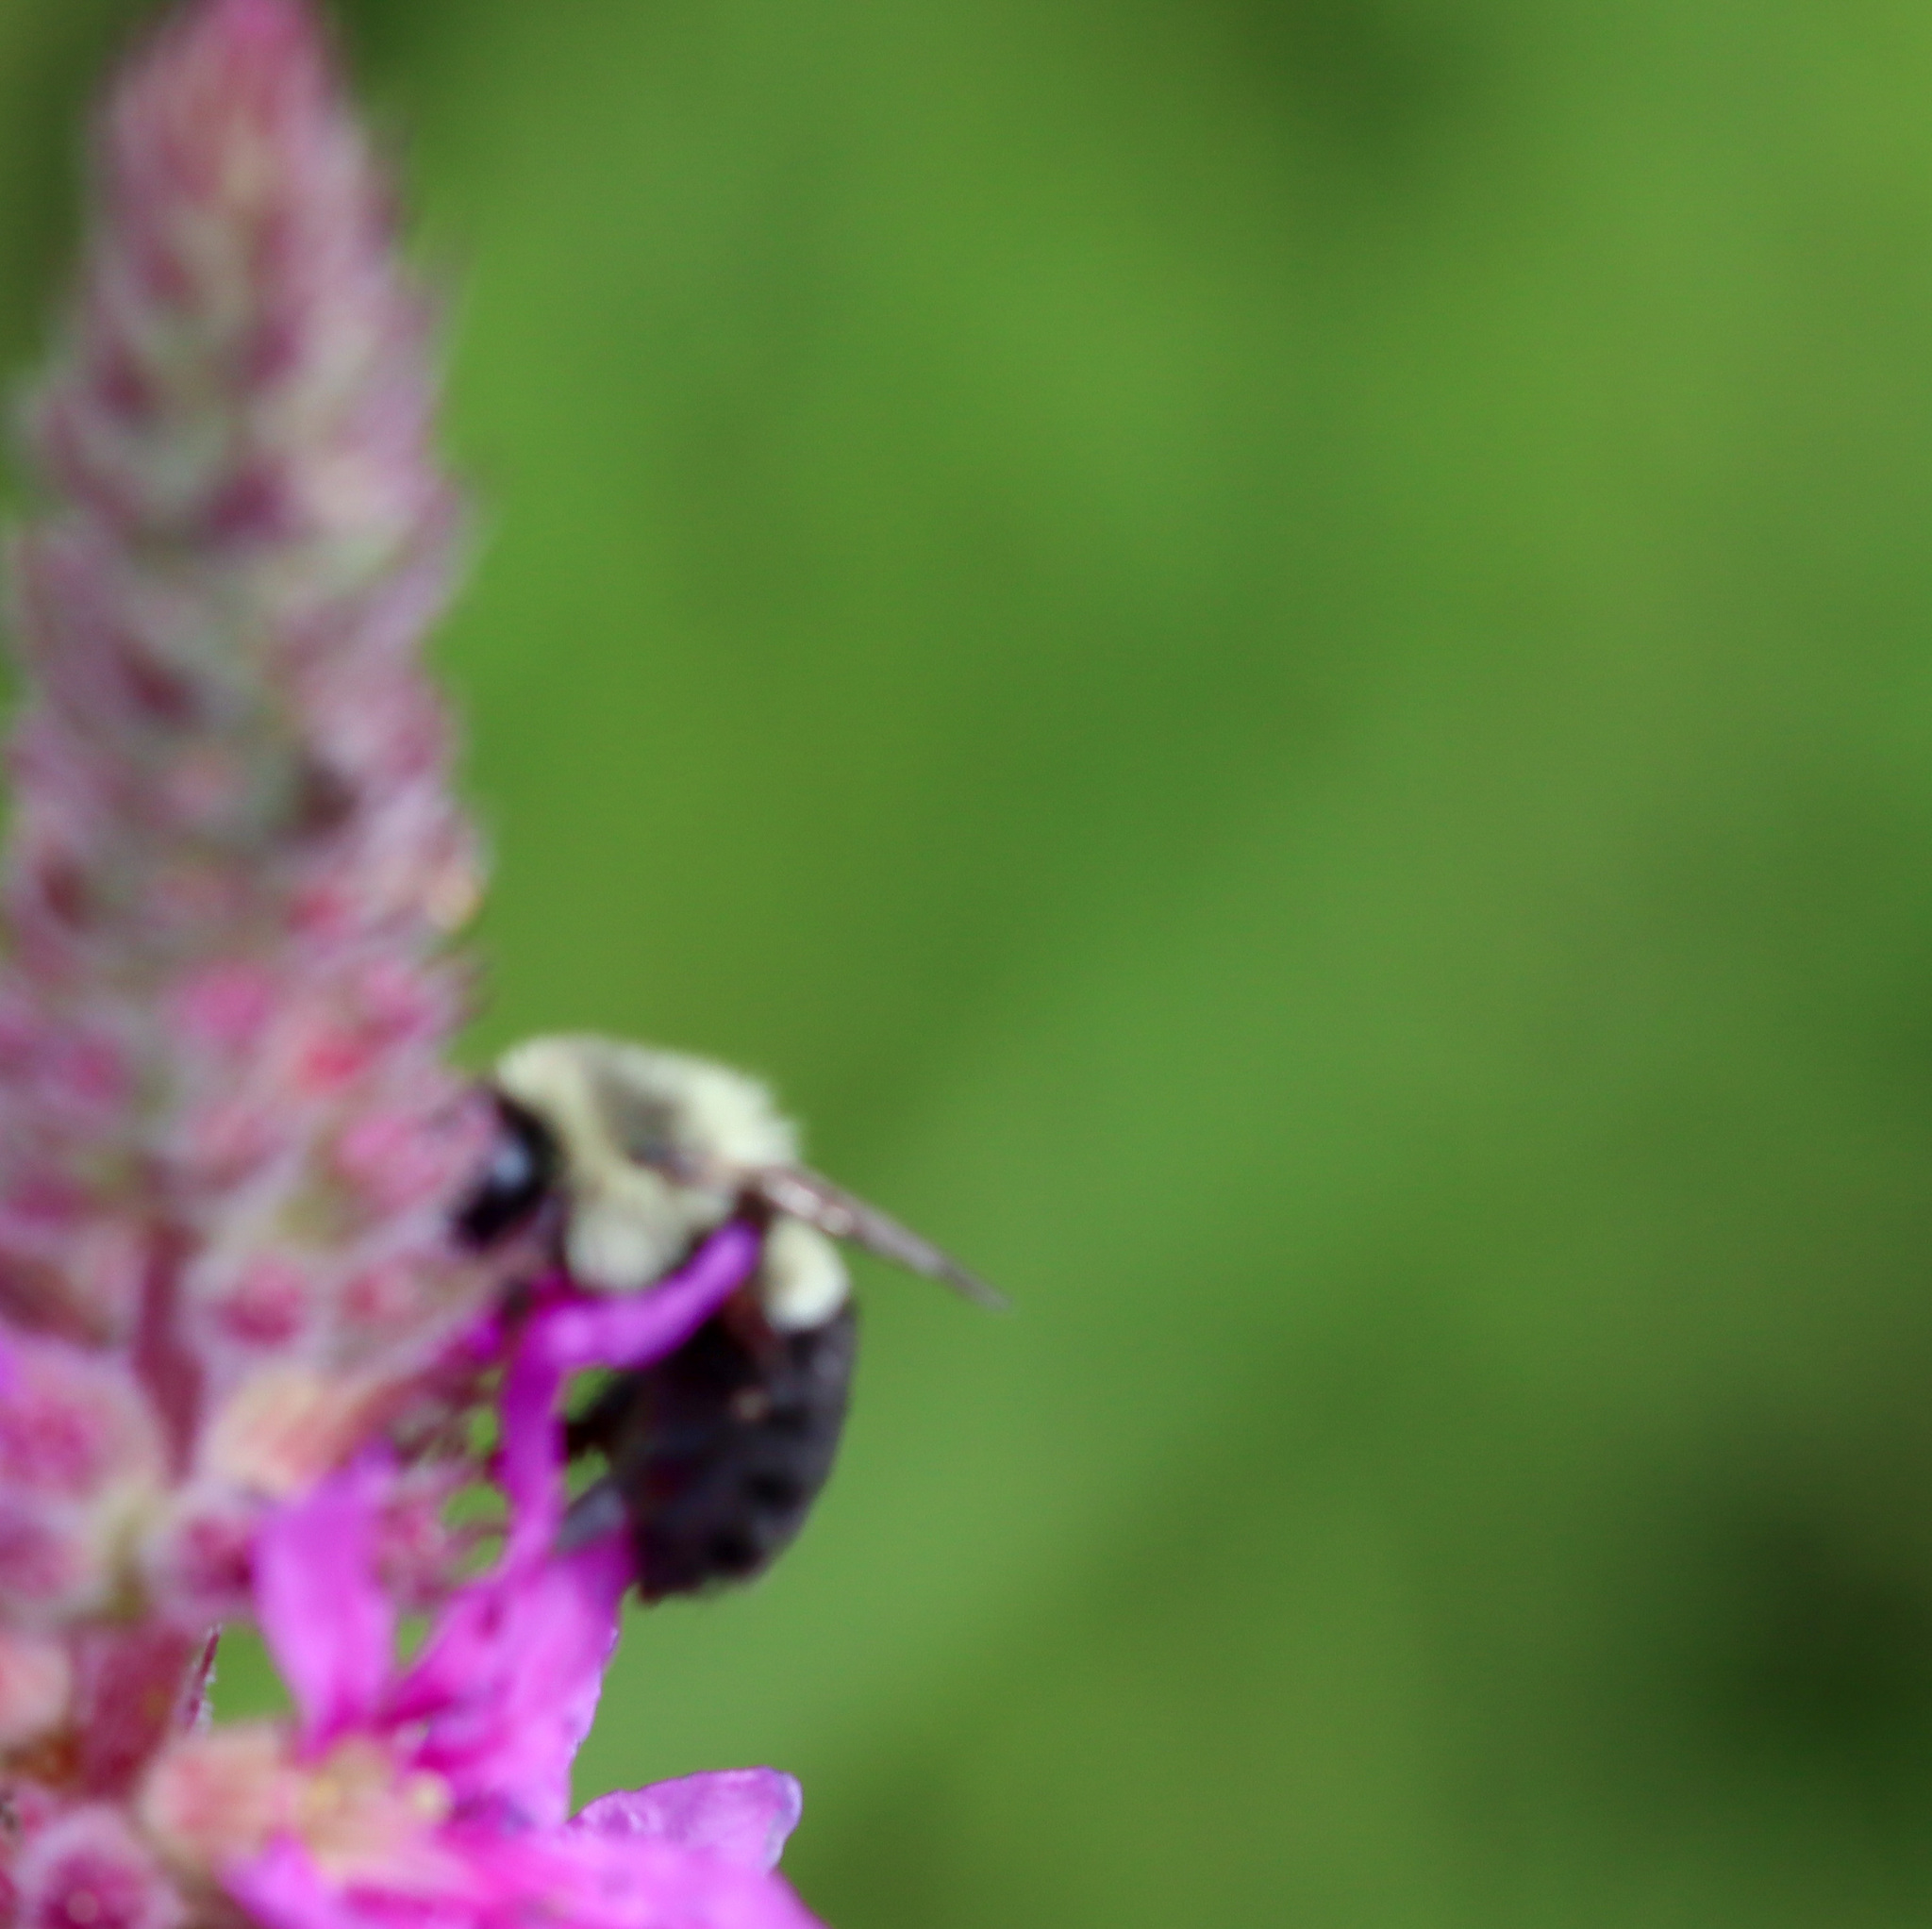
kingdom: Animalia
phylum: Arthropoda
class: Insecta
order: Hymenoptera
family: Apidae
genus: Bombus
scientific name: Bombus impatiens
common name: Common eastern bumble bee
